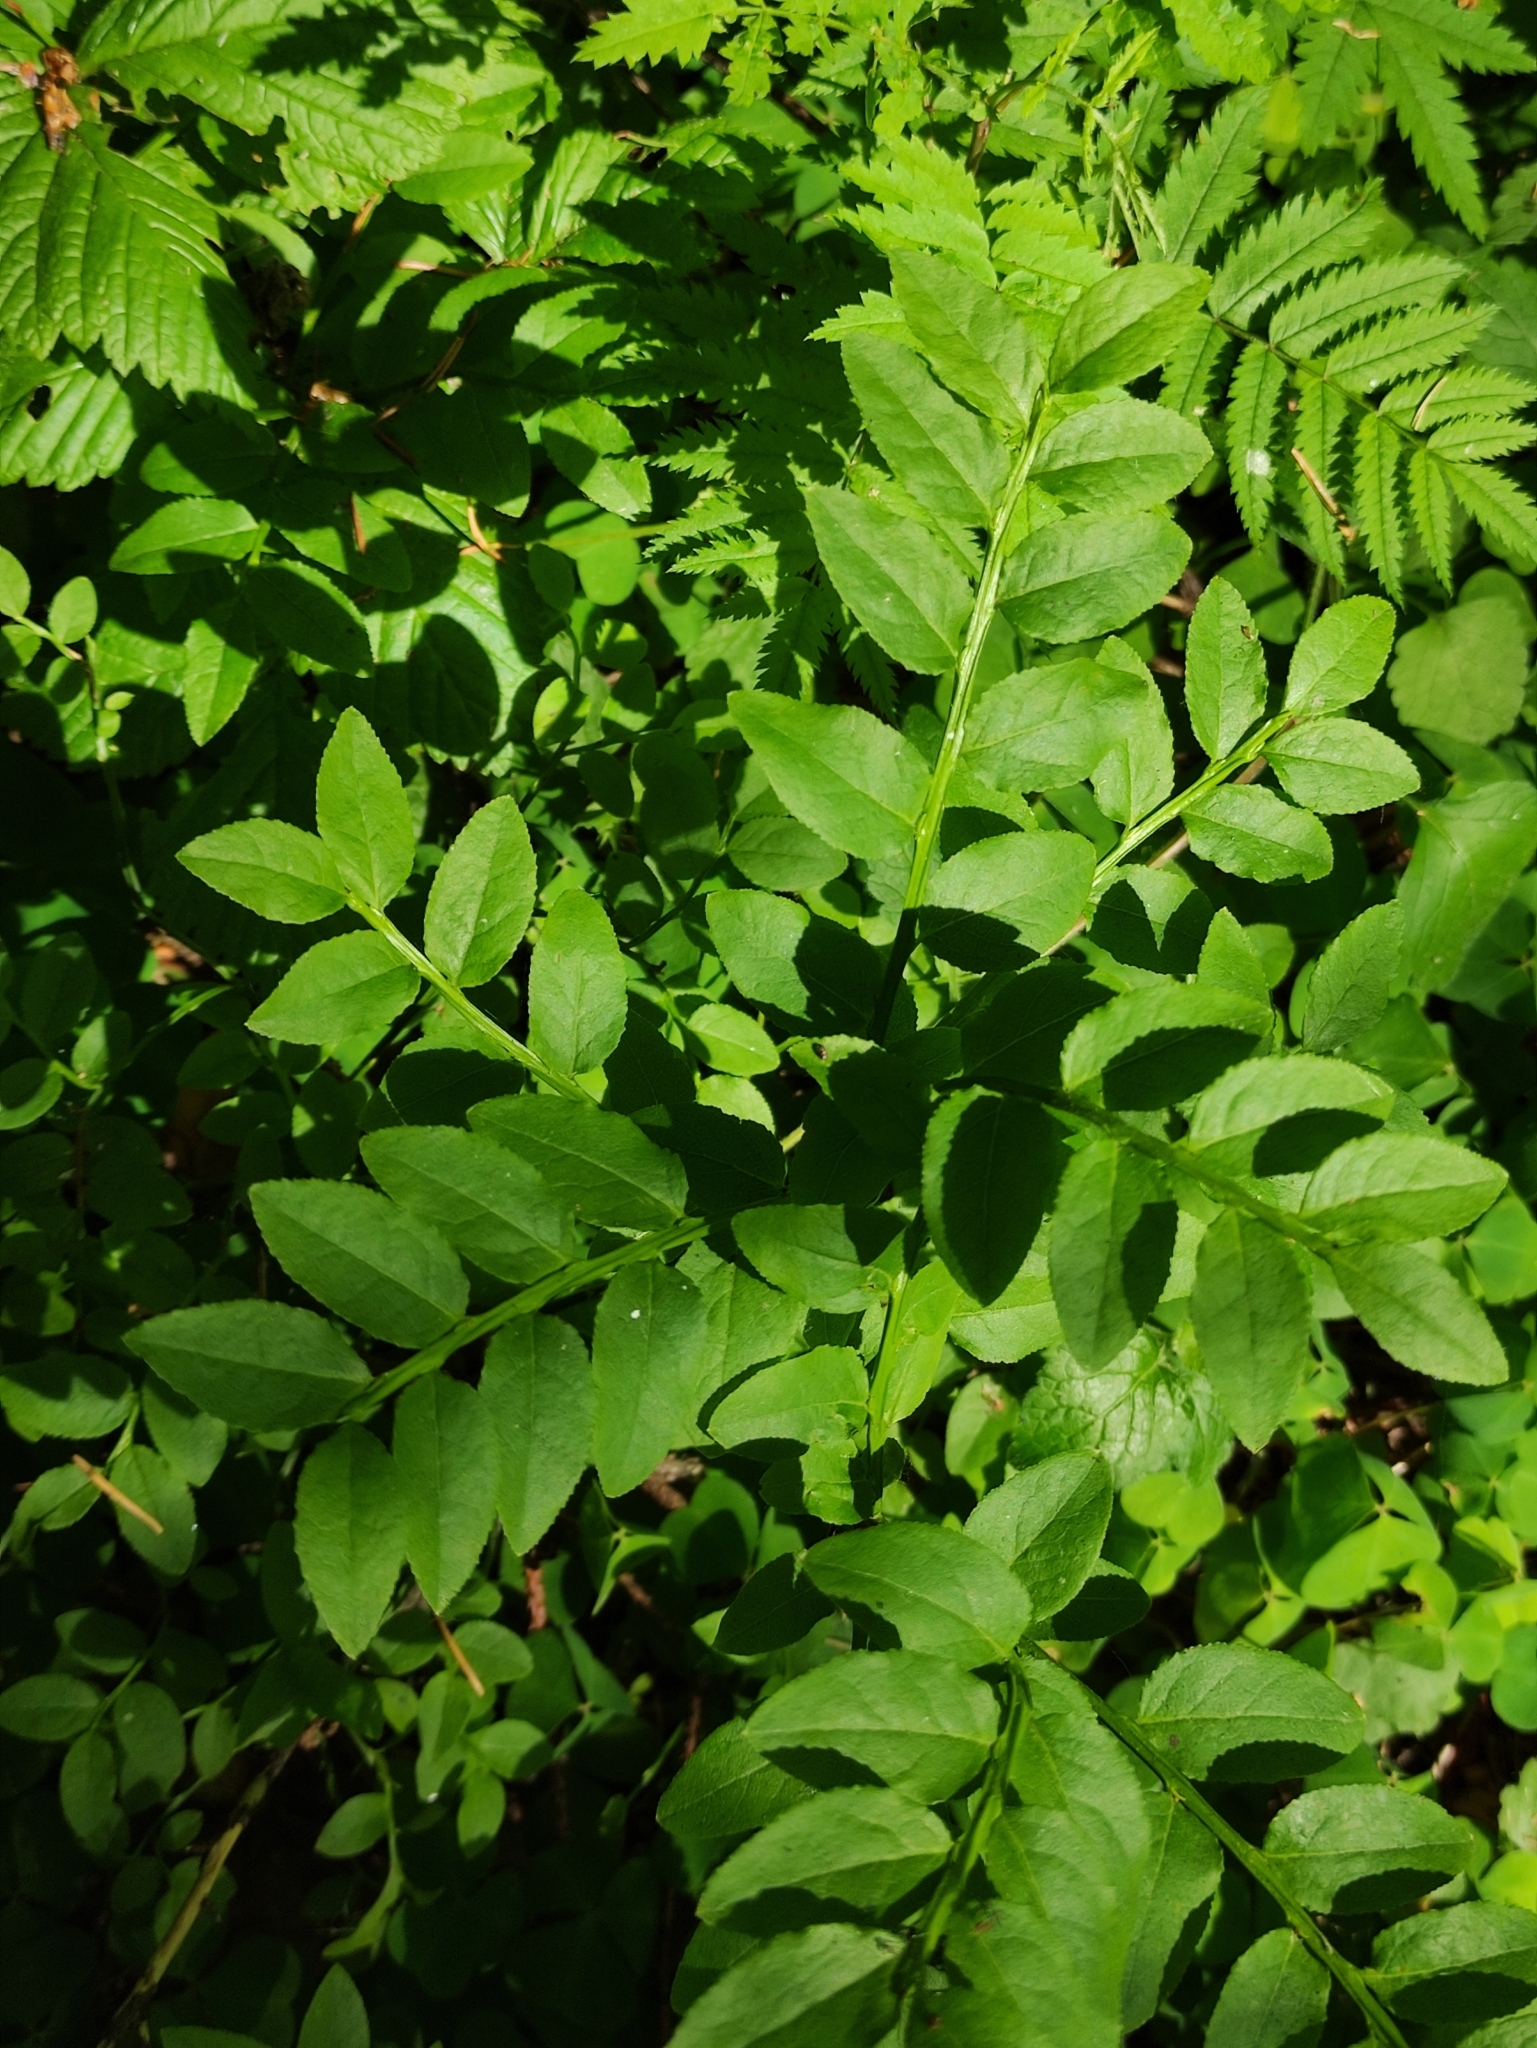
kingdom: Plantae
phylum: Tracheophyta
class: Magnoliopsida
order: Ericales
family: Ericaceae
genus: Vaccinium
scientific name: Vaccinium myrtillus
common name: Bilberry
